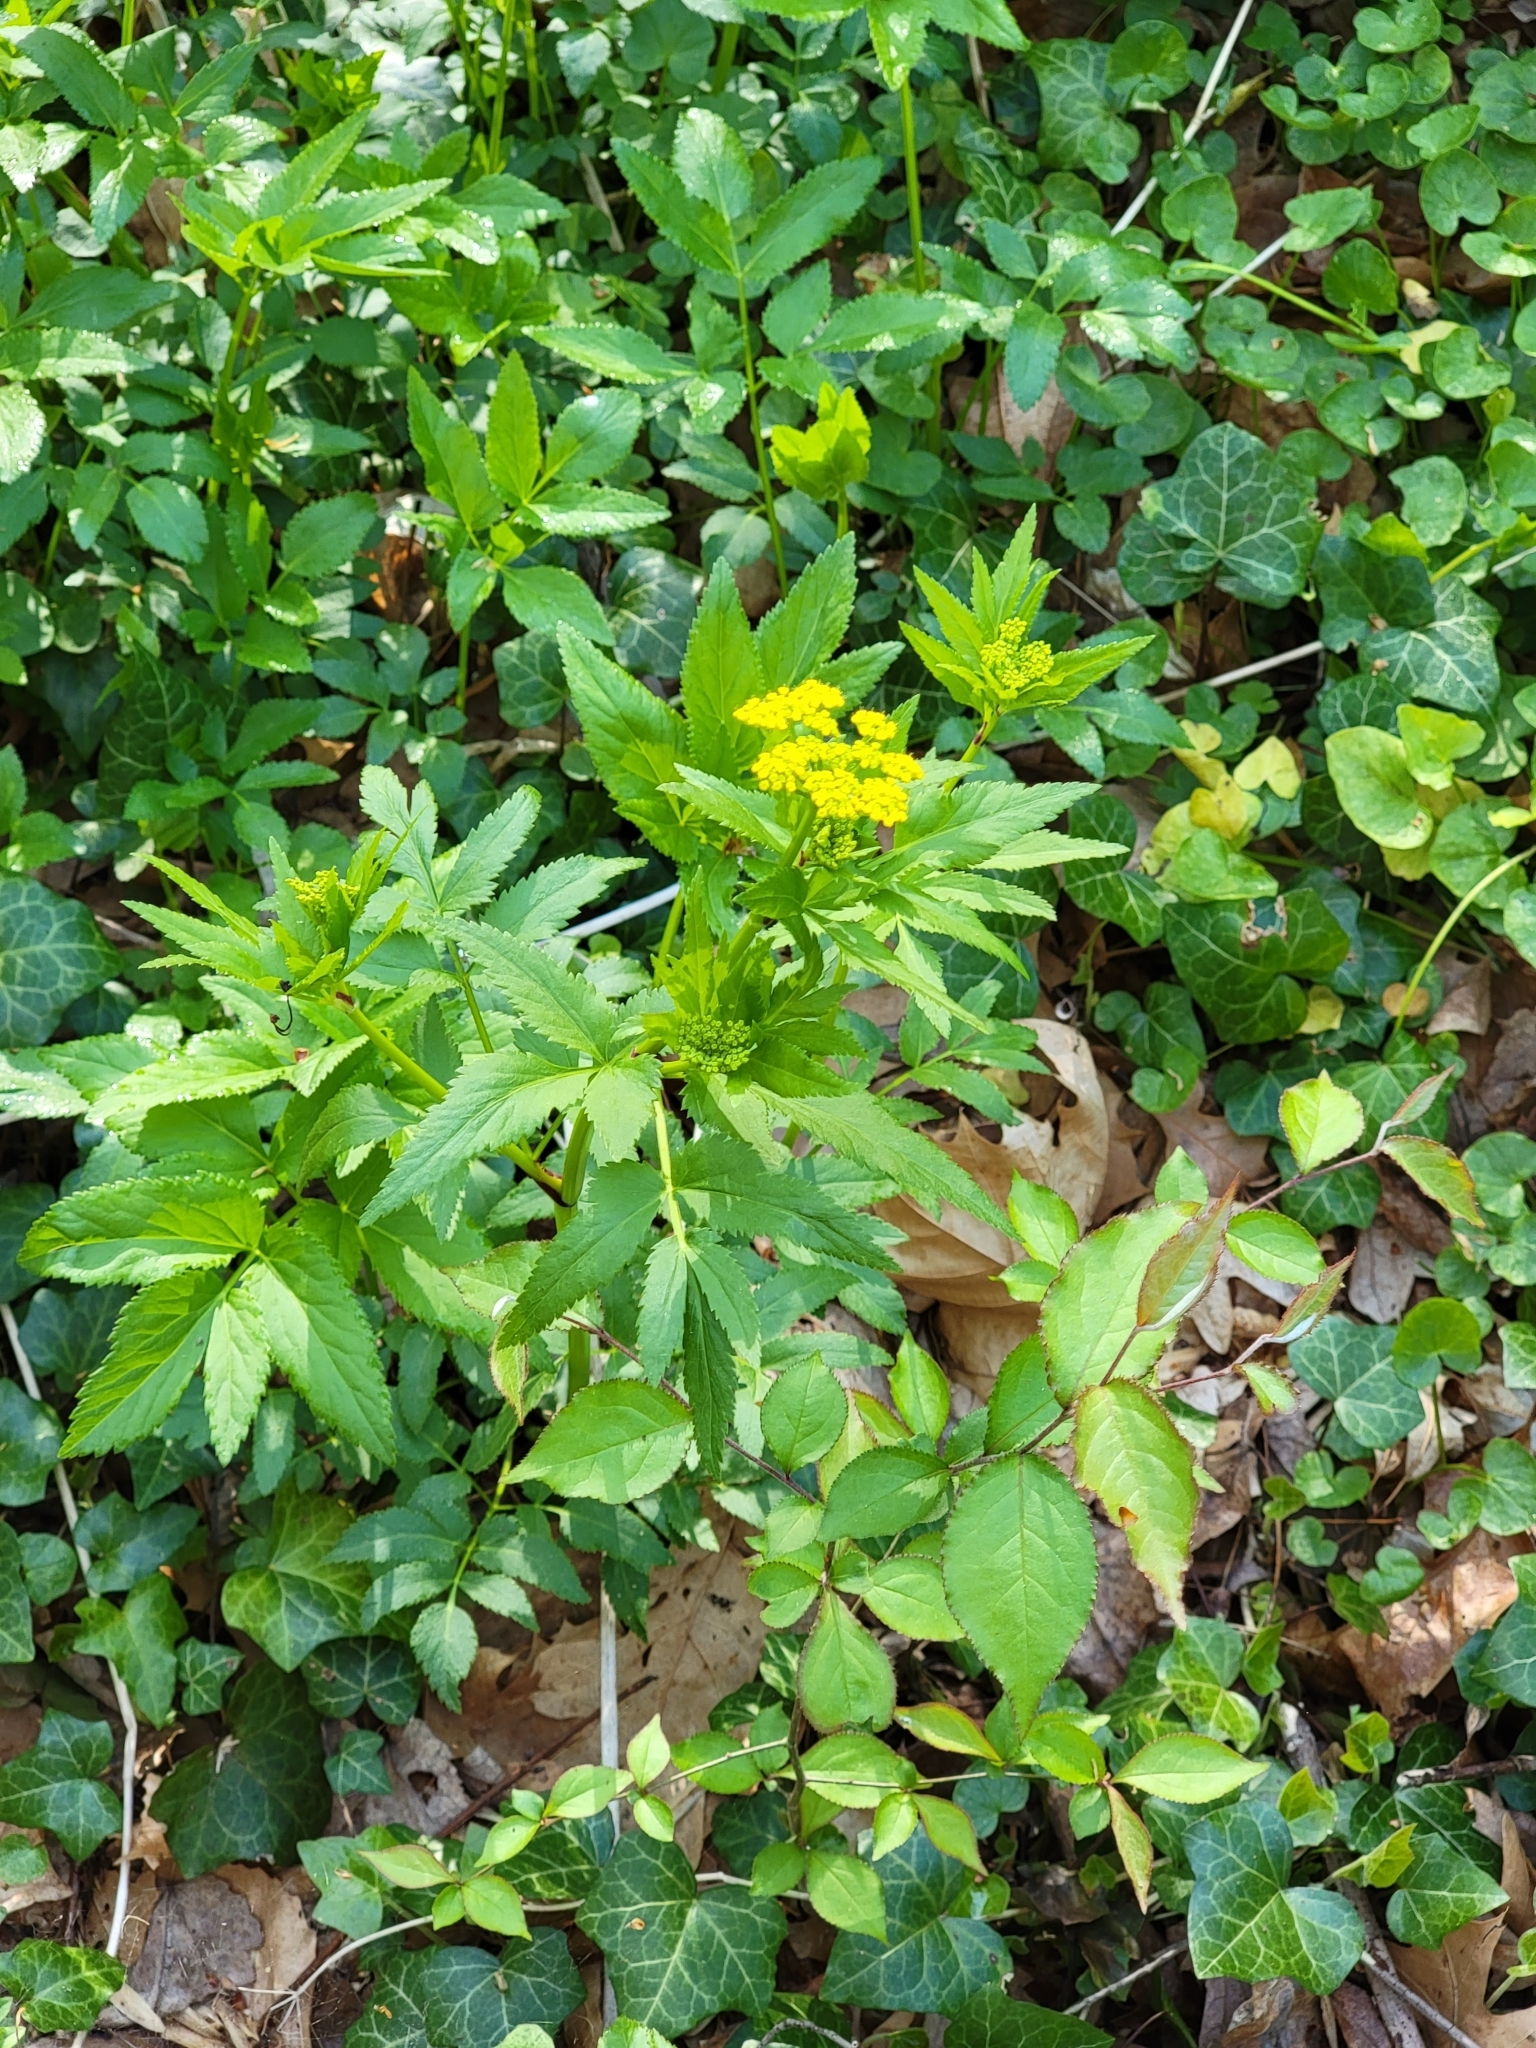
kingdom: Plantae
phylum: Tracheophyta
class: Magnoliopsida
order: Apiales
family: Apiaceae
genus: Zizia
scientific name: Zizia aurea
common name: Golden alexanders
